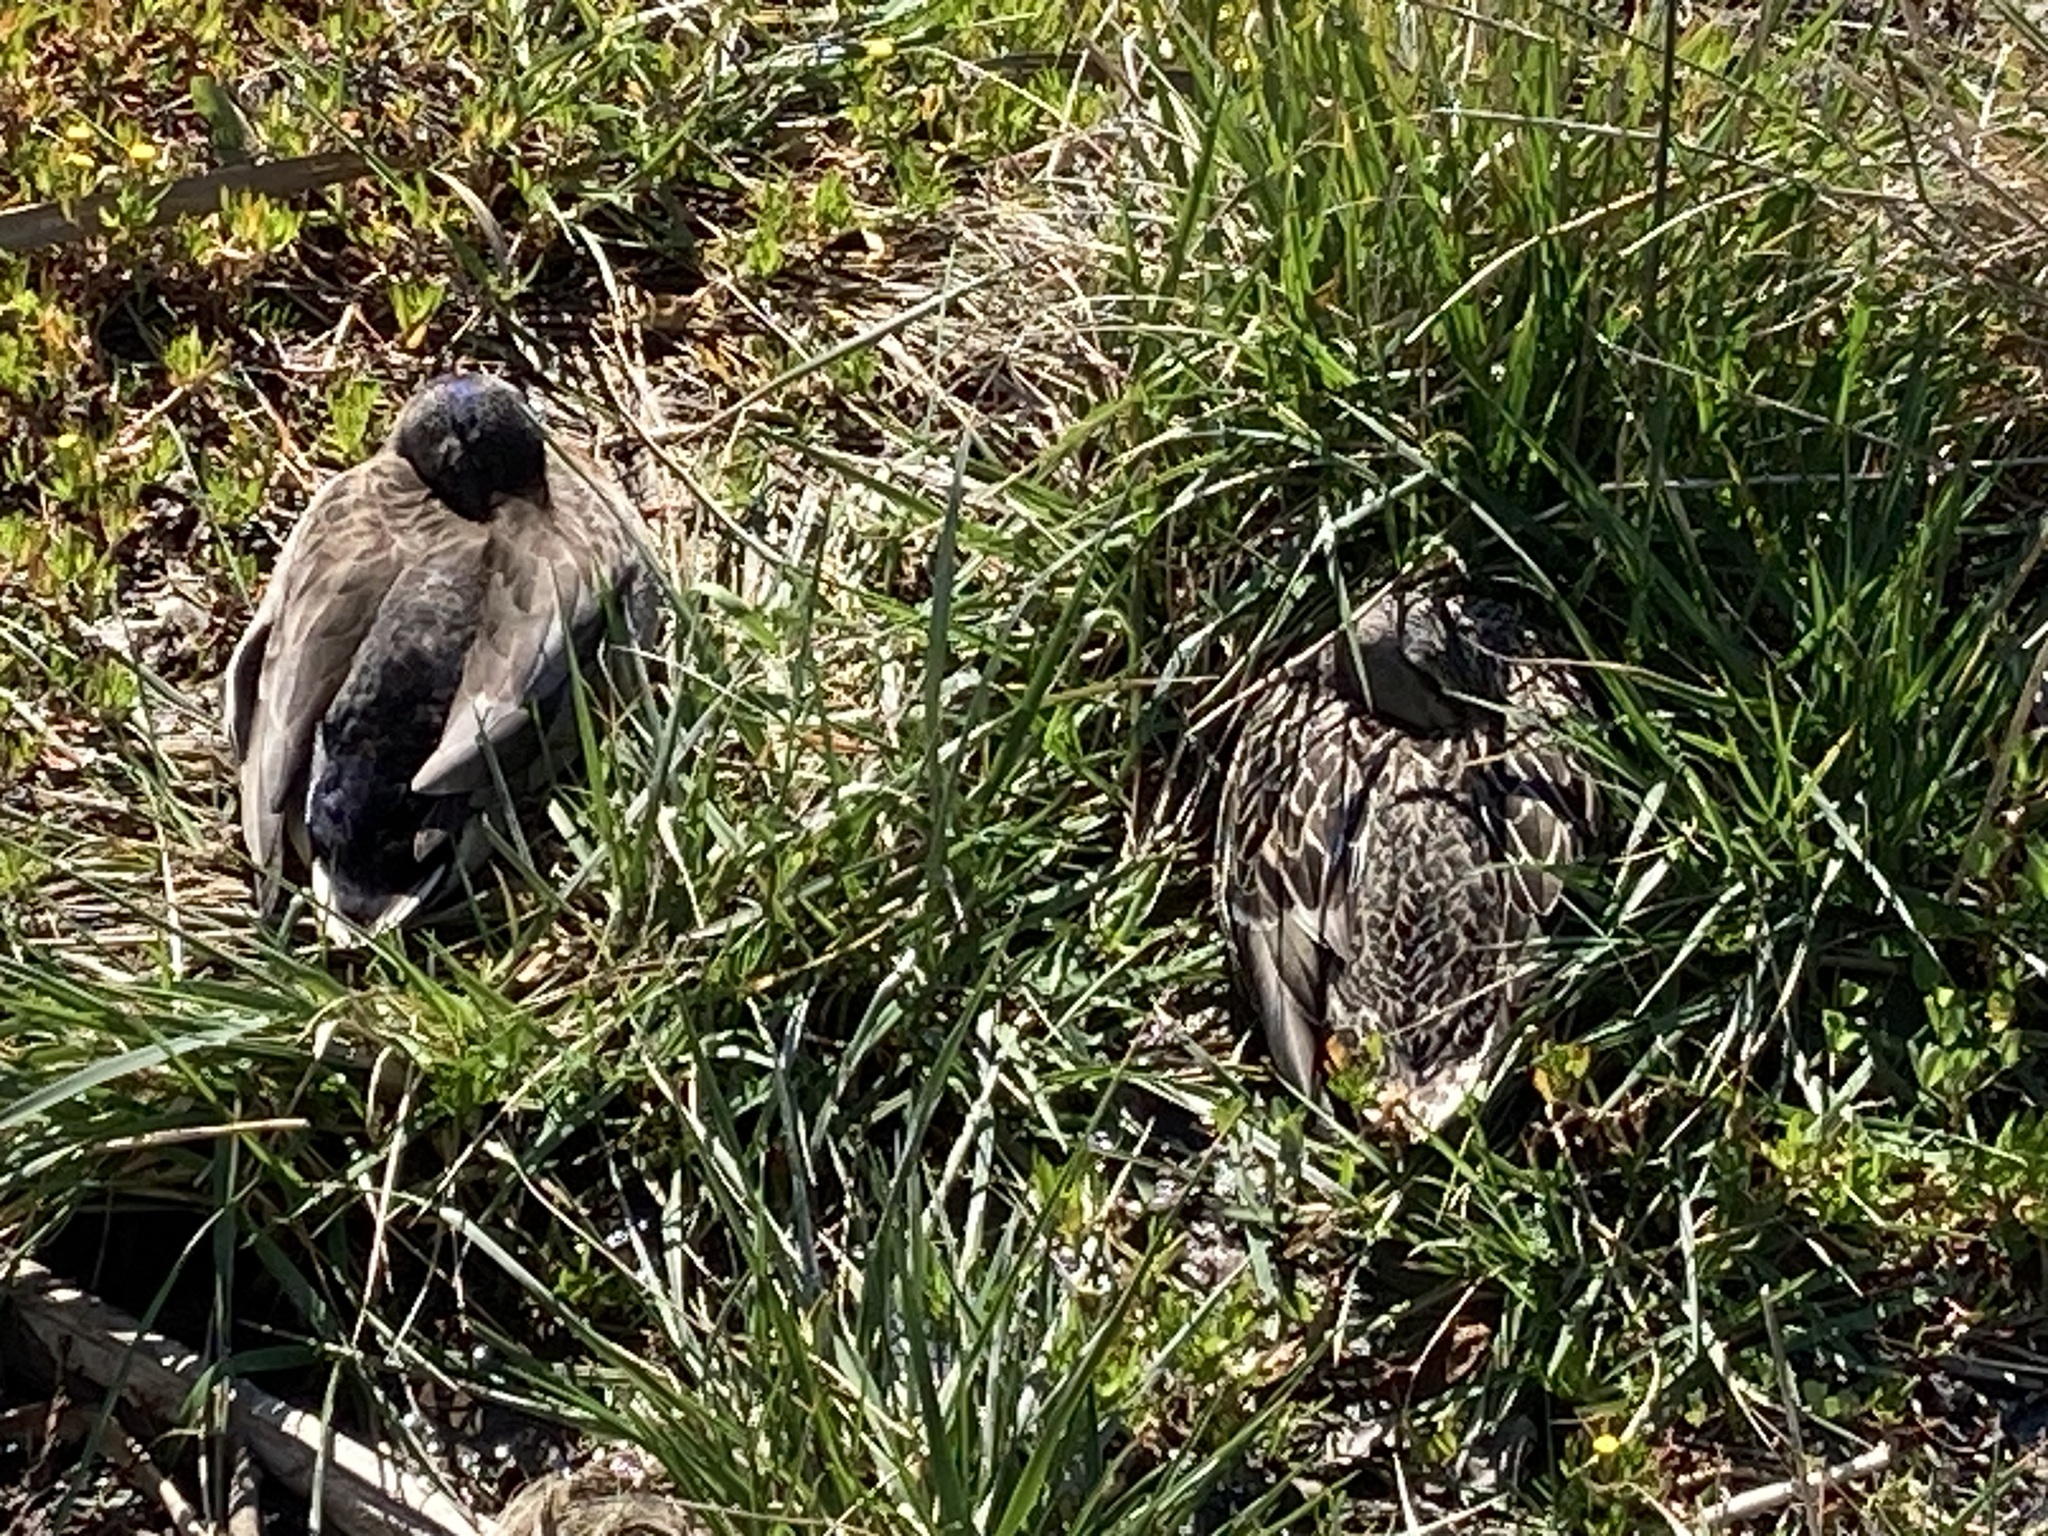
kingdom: Animalia
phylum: Chordata
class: Aves
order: Anseriformes
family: Anatidae
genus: Anas
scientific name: Anas
